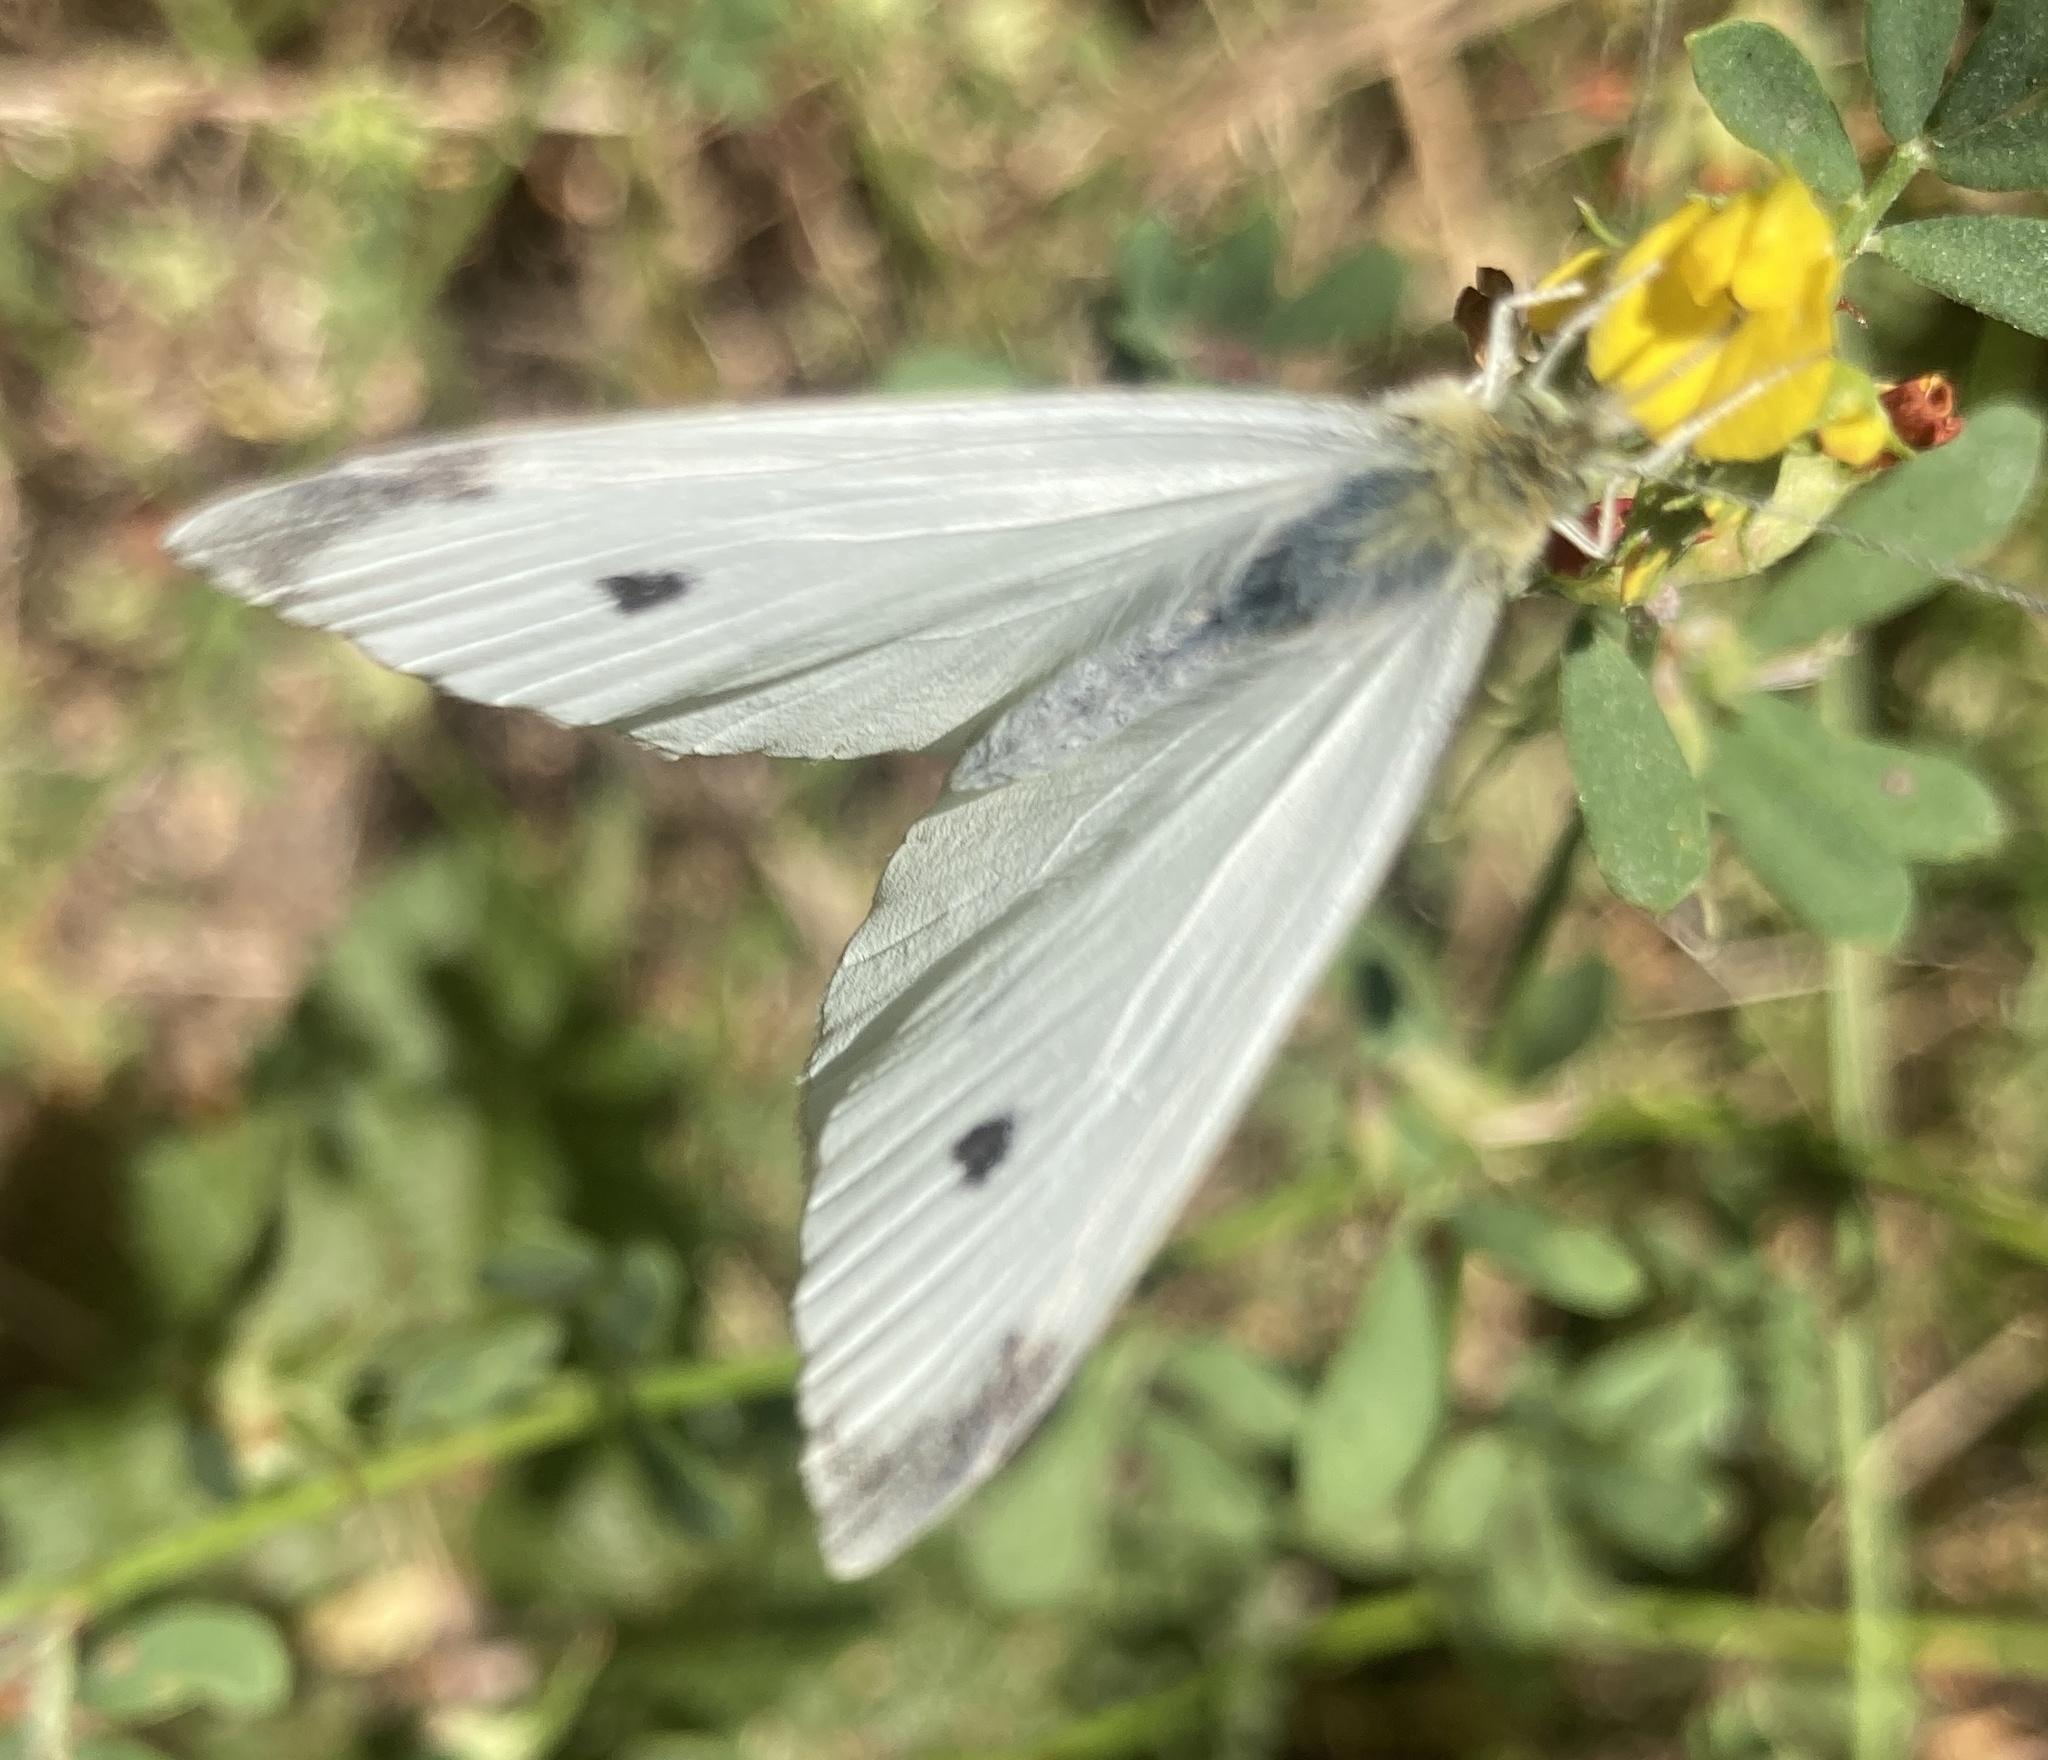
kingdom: Animalia
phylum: Arthropoda
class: Insecta
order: Lepidoptera
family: Pieridae
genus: Pieris
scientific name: Pieris rapae
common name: Small white
